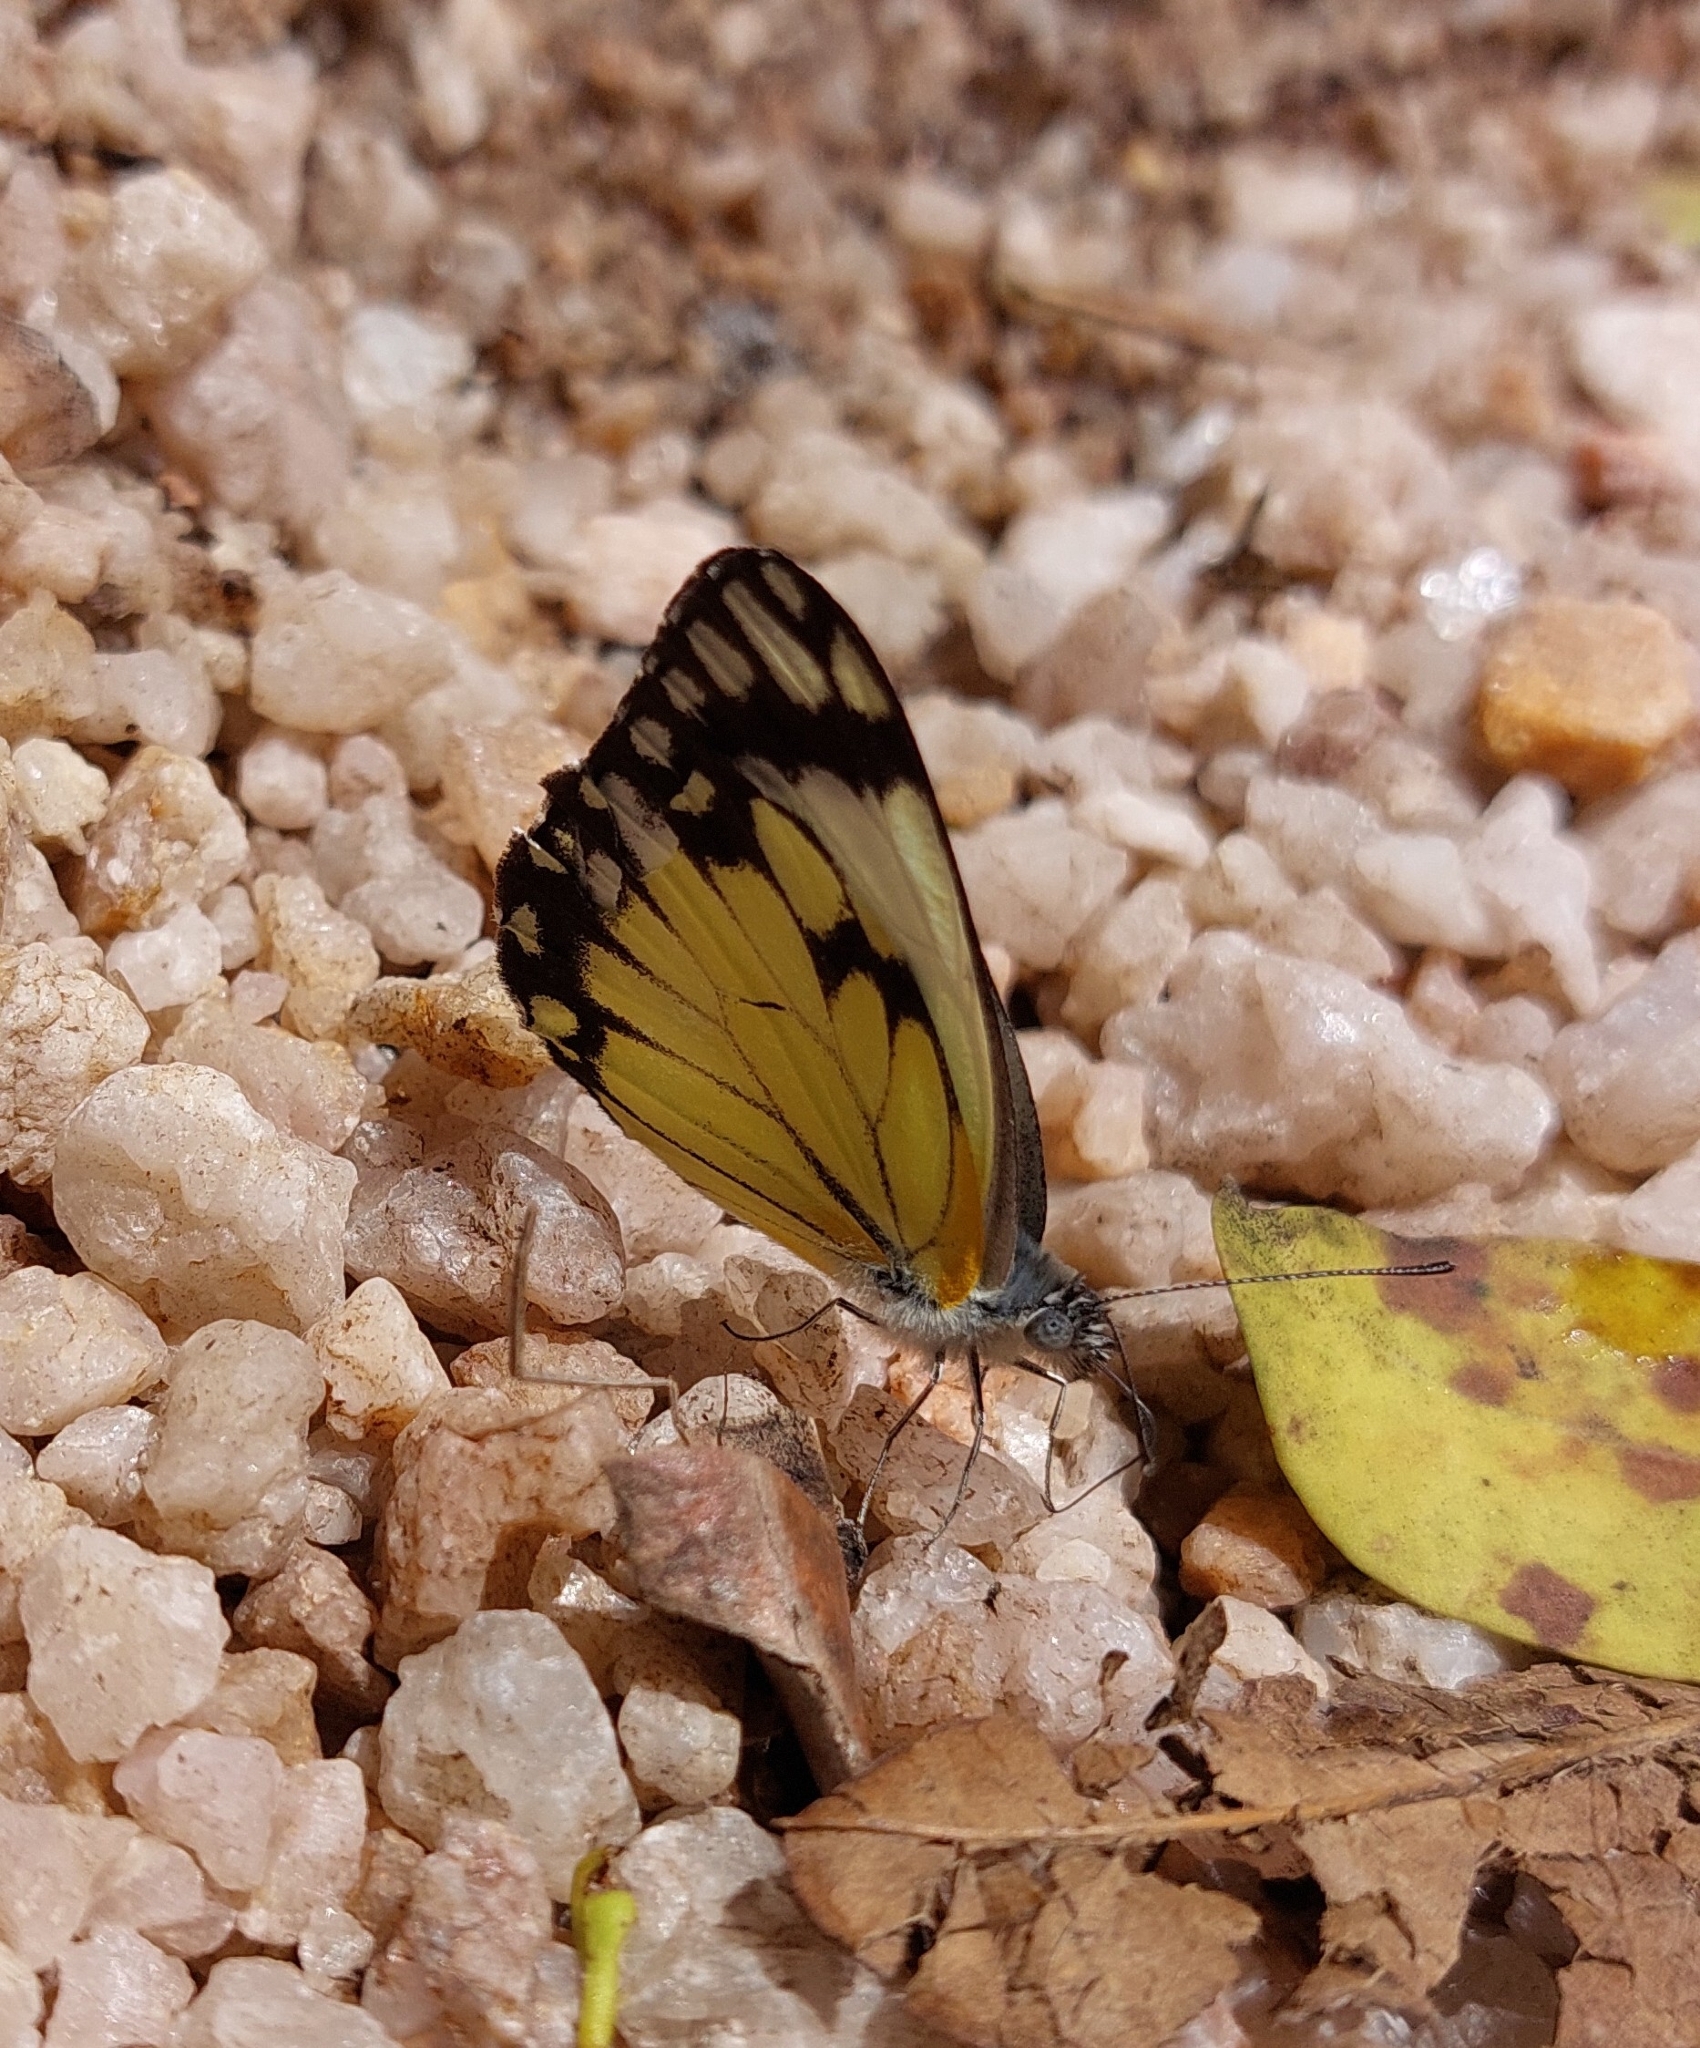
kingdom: Animalia
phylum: Arthropoda
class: Insecta
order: Lepidoptera
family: Pieridae
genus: Belenois
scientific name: Belenois creona
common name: African caper white
